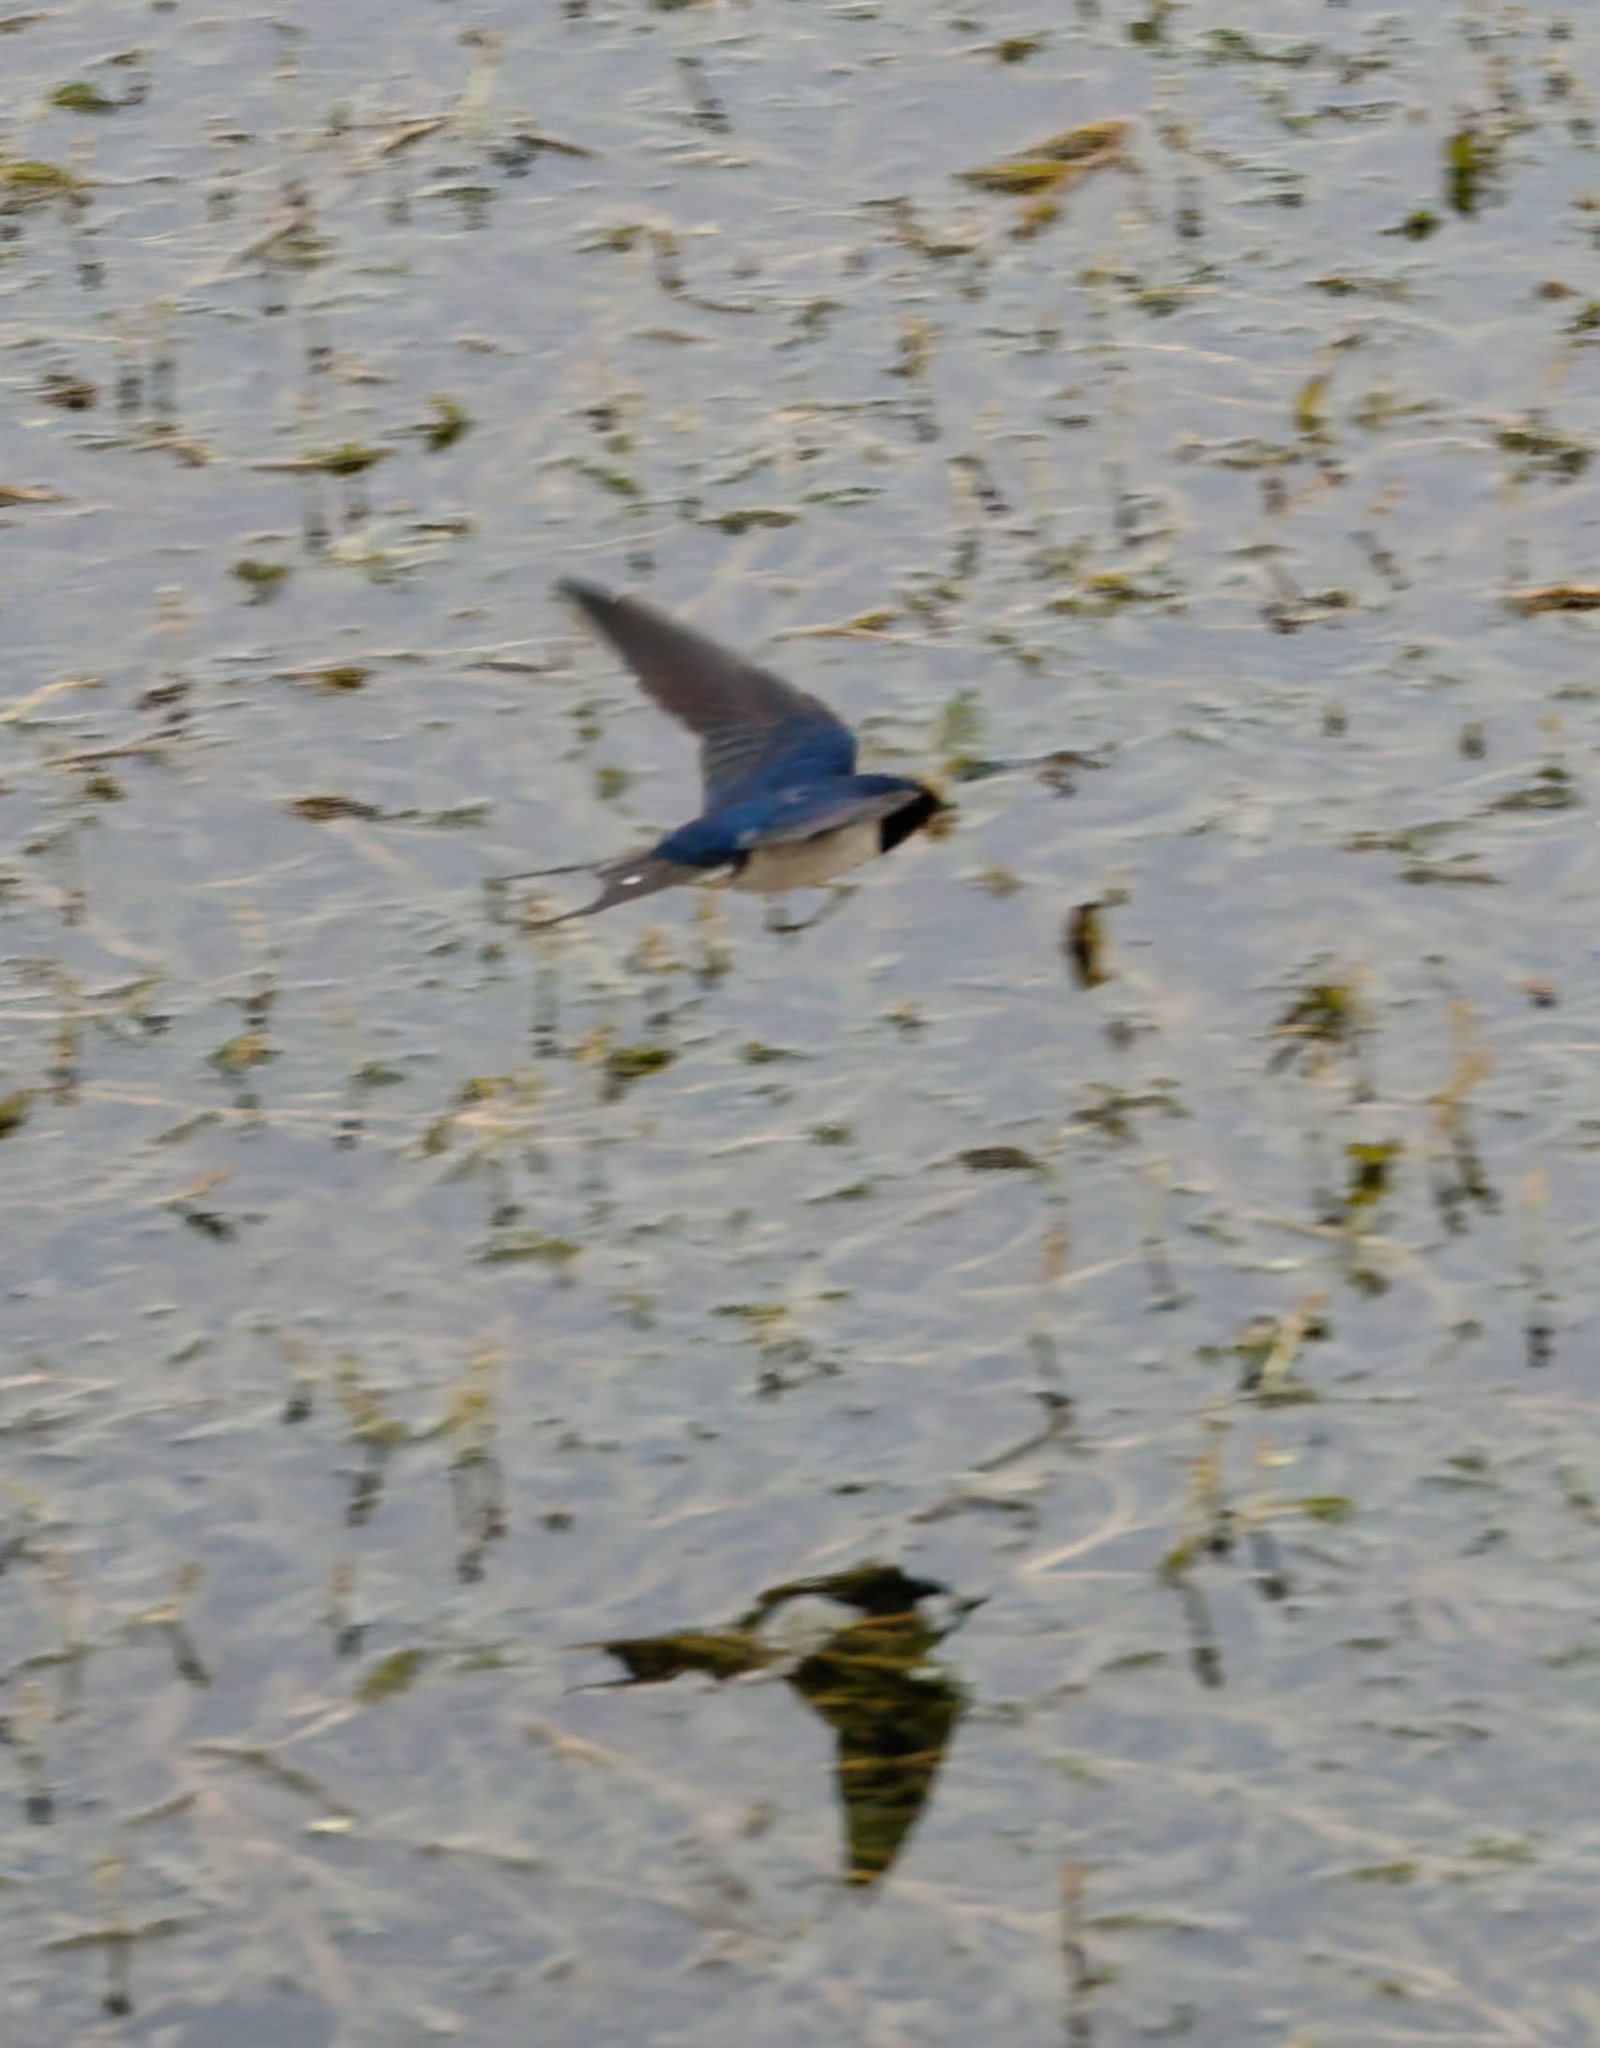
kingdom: Animalia
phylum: Chordata
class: Aves
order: Passeriformes
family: Hirundinidae
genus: Hirundo
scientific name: Hirundo rustica
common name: Barn swallow
